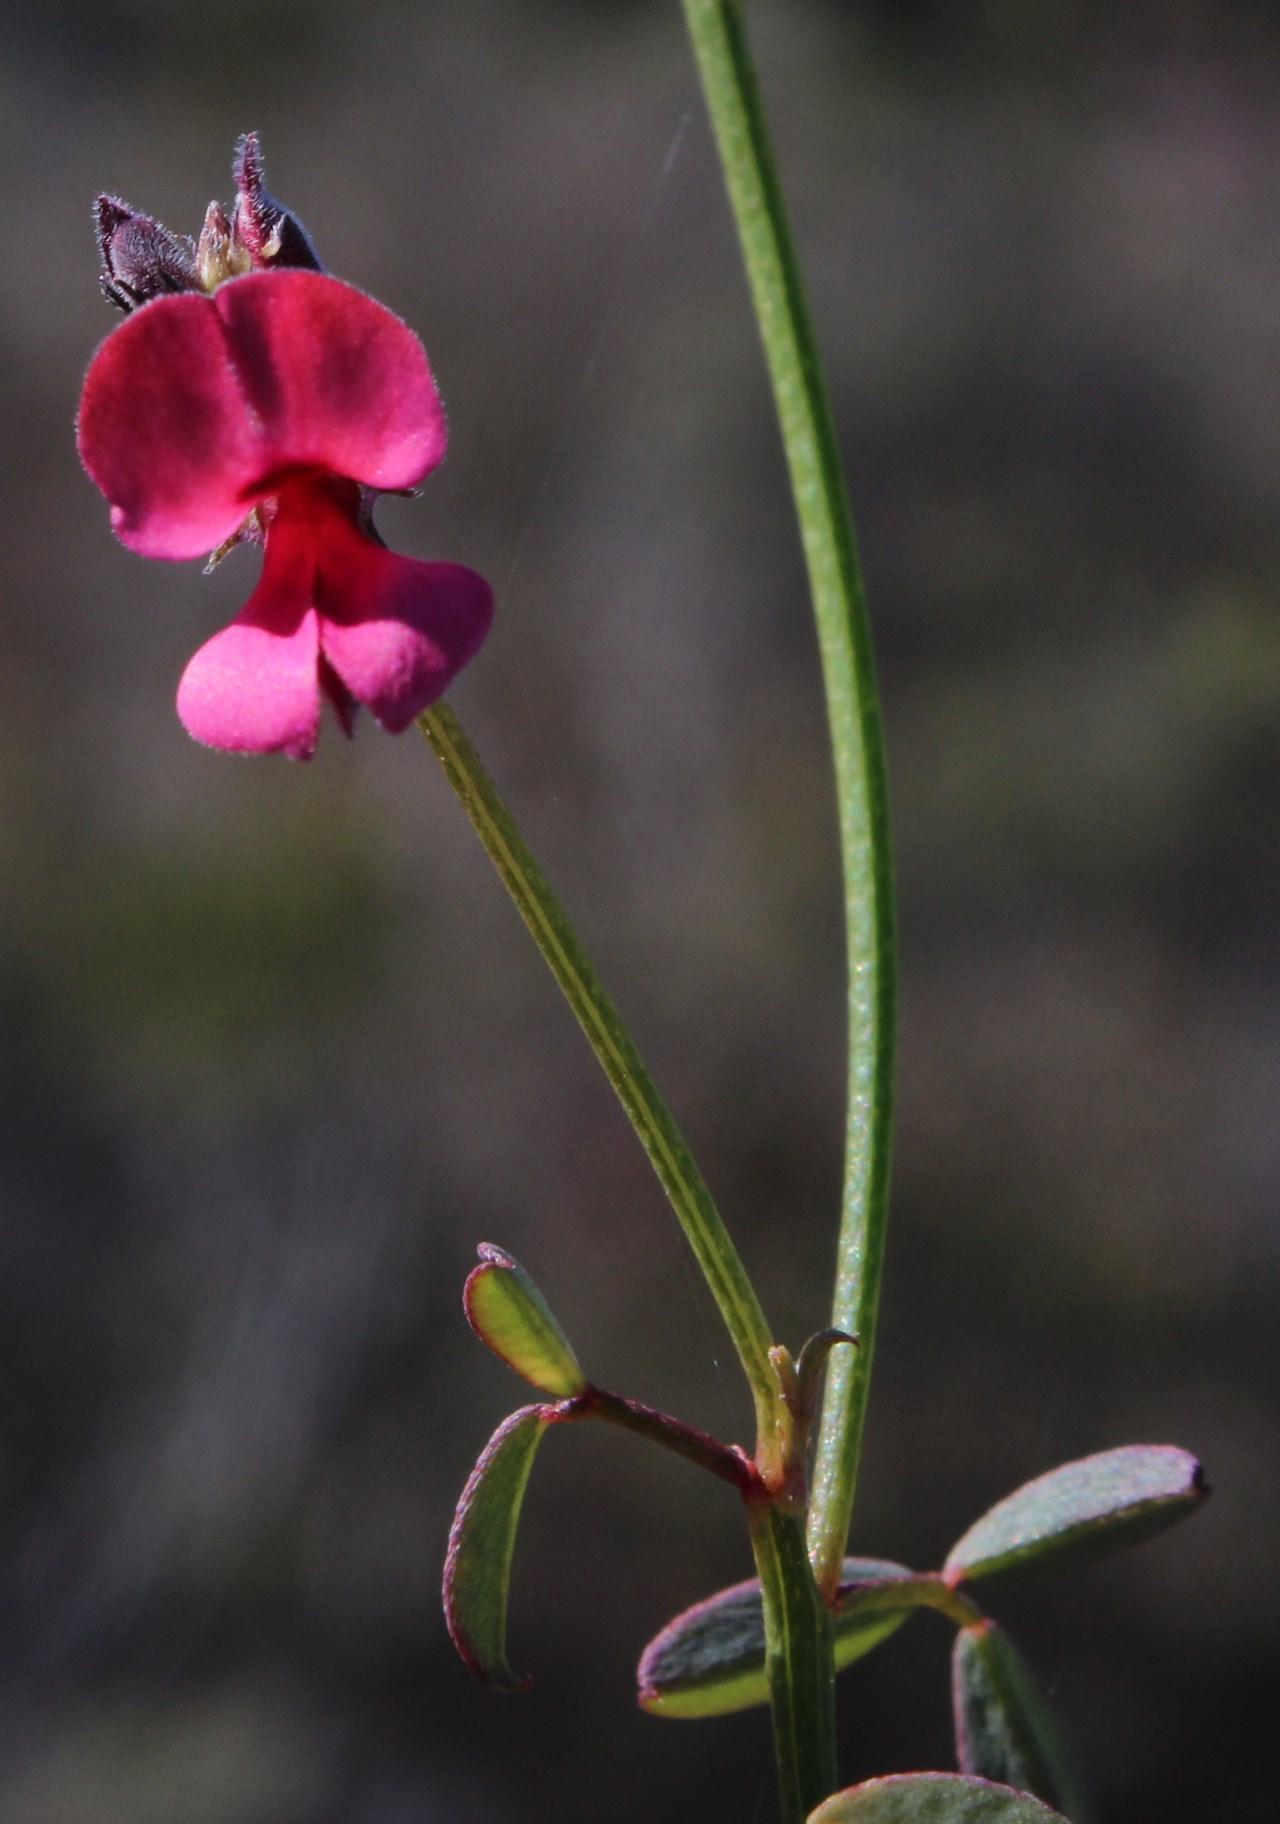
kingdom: Plantae
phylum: Tracheophyta
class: Magnoliopsida
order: Fabales
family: Fabaceae
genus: Indigofera
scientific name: Indigofera heterophylla
